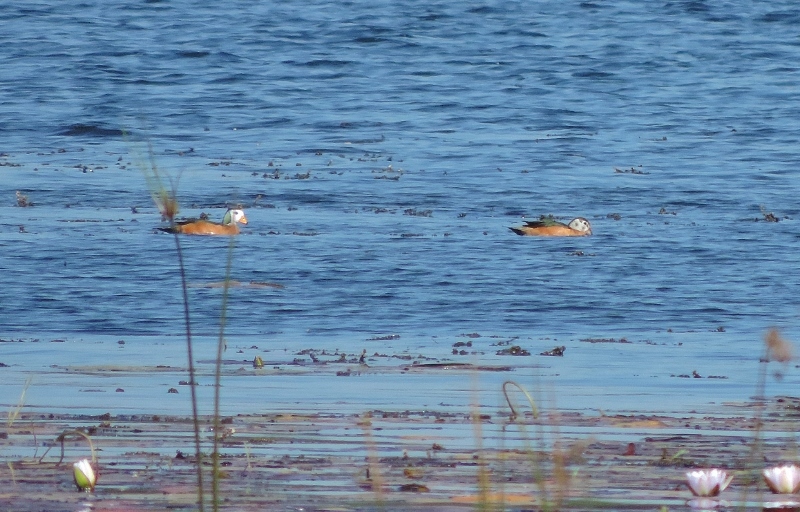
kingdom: Animalia
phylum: Chordata
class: Aves
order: Anseriformes
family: Anatidae
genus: Nettapus
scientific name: Nettapus auritus
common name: African pygmy-goose
